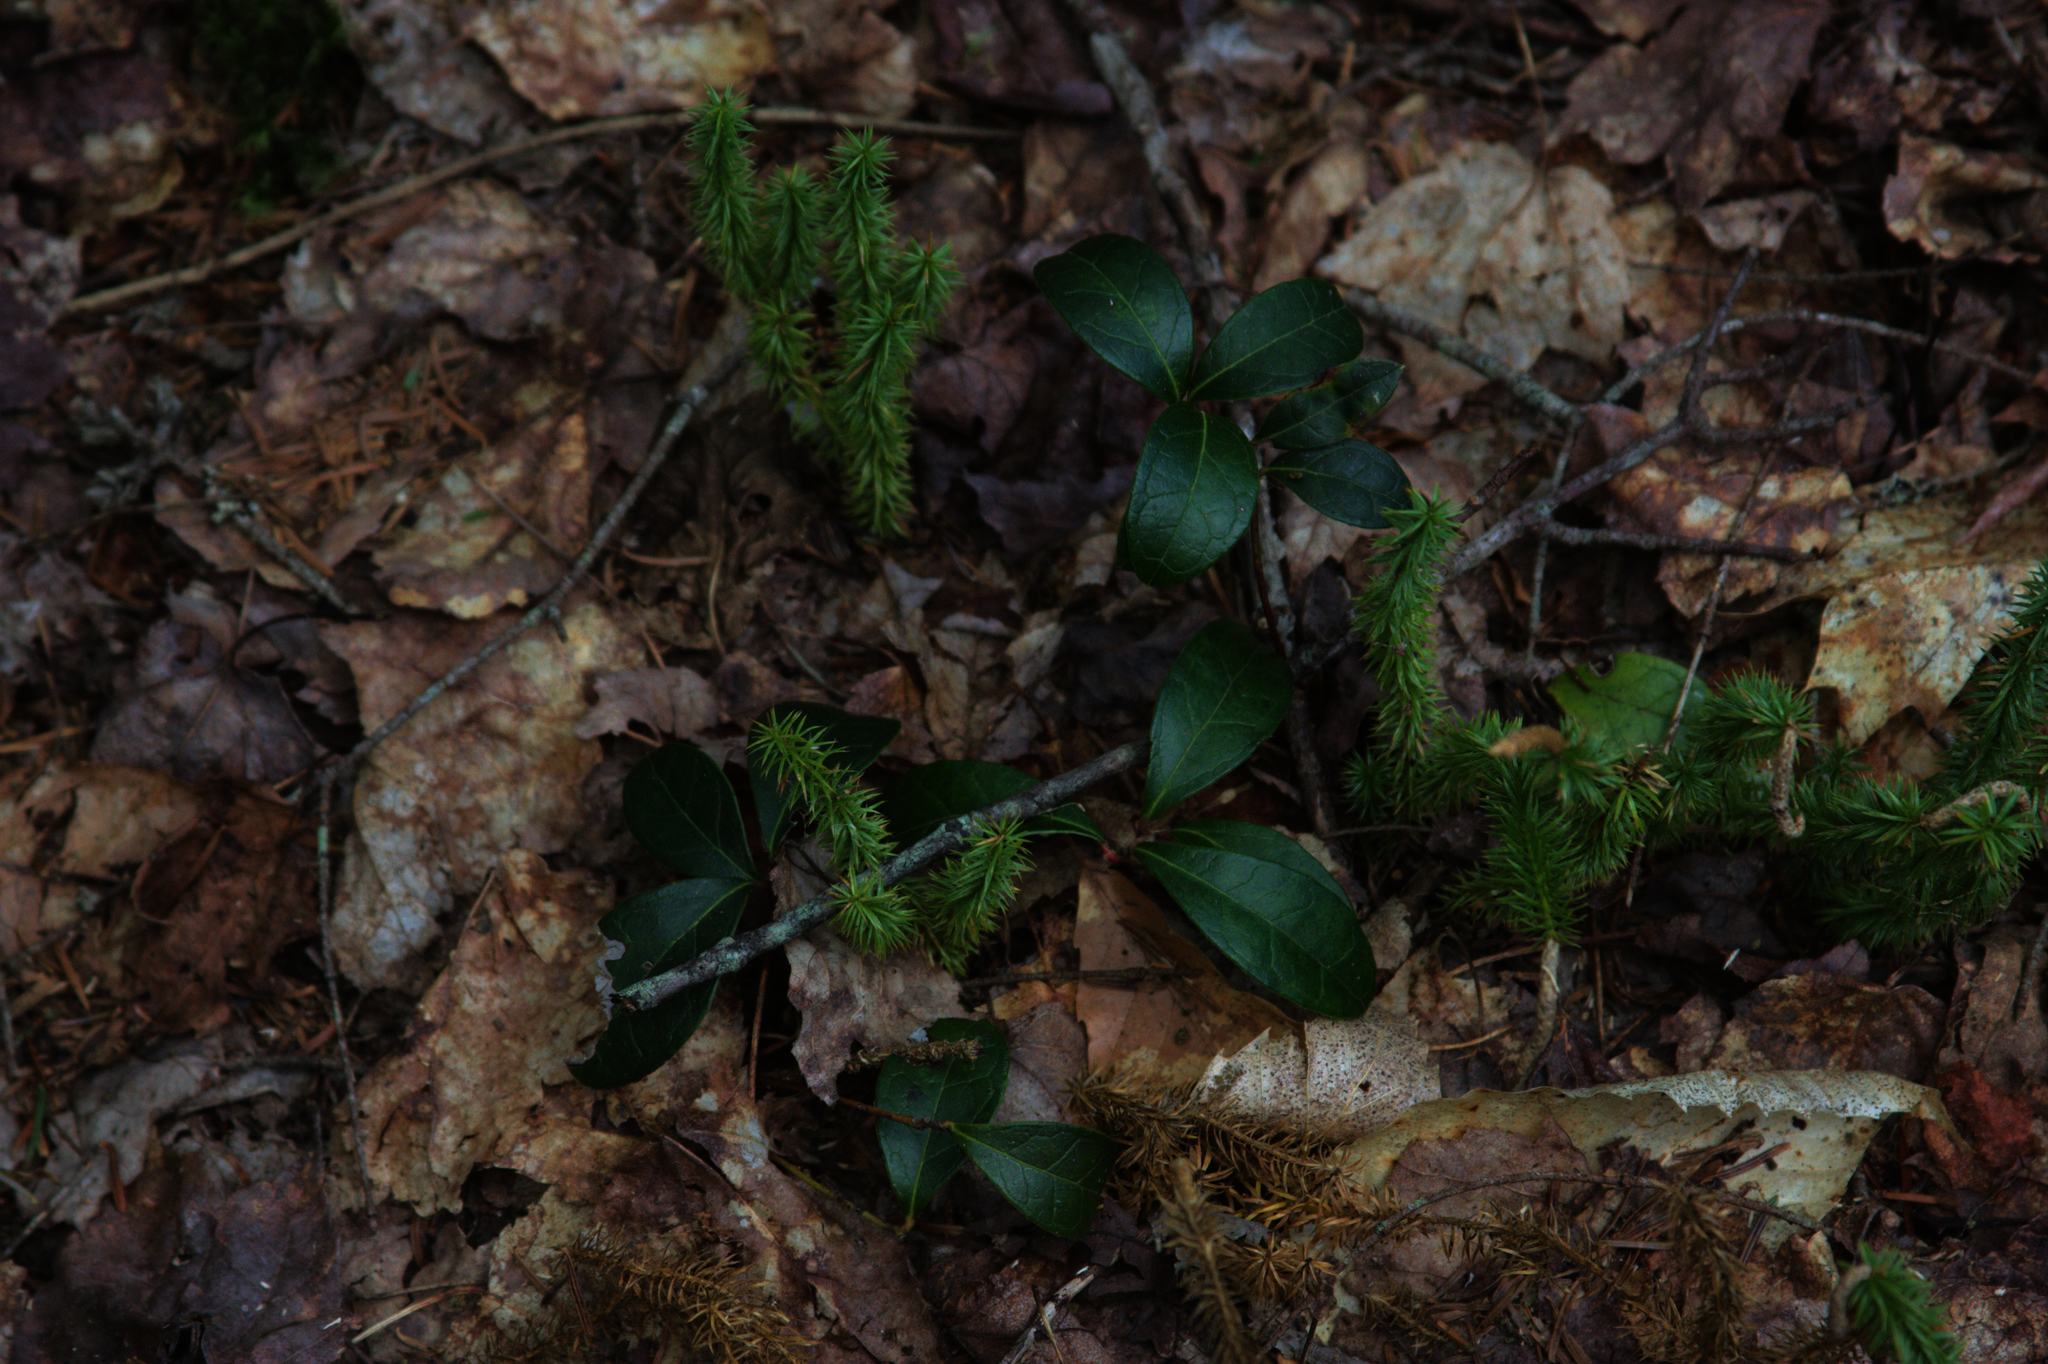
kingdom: Plantae
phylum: Tracheophyta
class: Lycopodiopsida
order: Lycopodiales
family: Lycopodiaceae
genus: Spinulum
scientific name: Spinulum annotinum
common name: Interrupted club-moss
